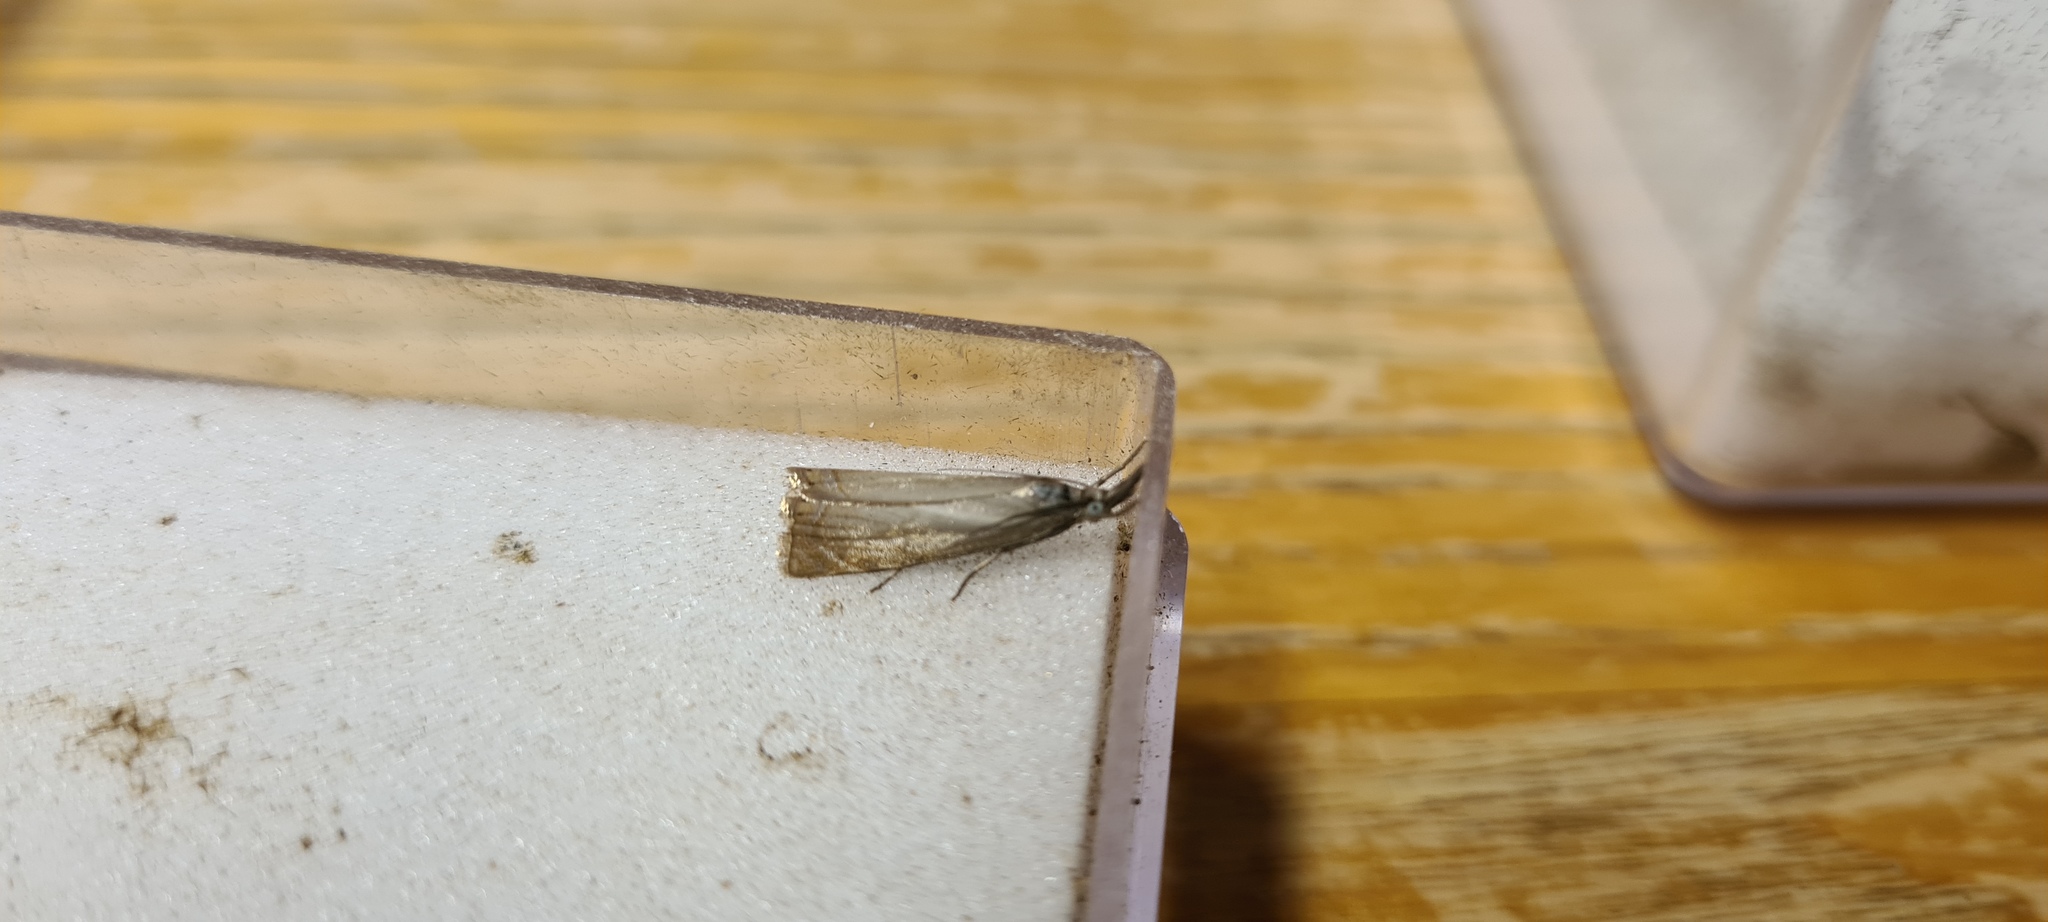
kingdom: Animalia
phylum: Arthropoda
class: Insecta
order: Lepidoptera
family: Crambidae
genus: Chrysoteuchia
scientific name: Chrysoteuchia culmella
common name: Garden grass-veneer
